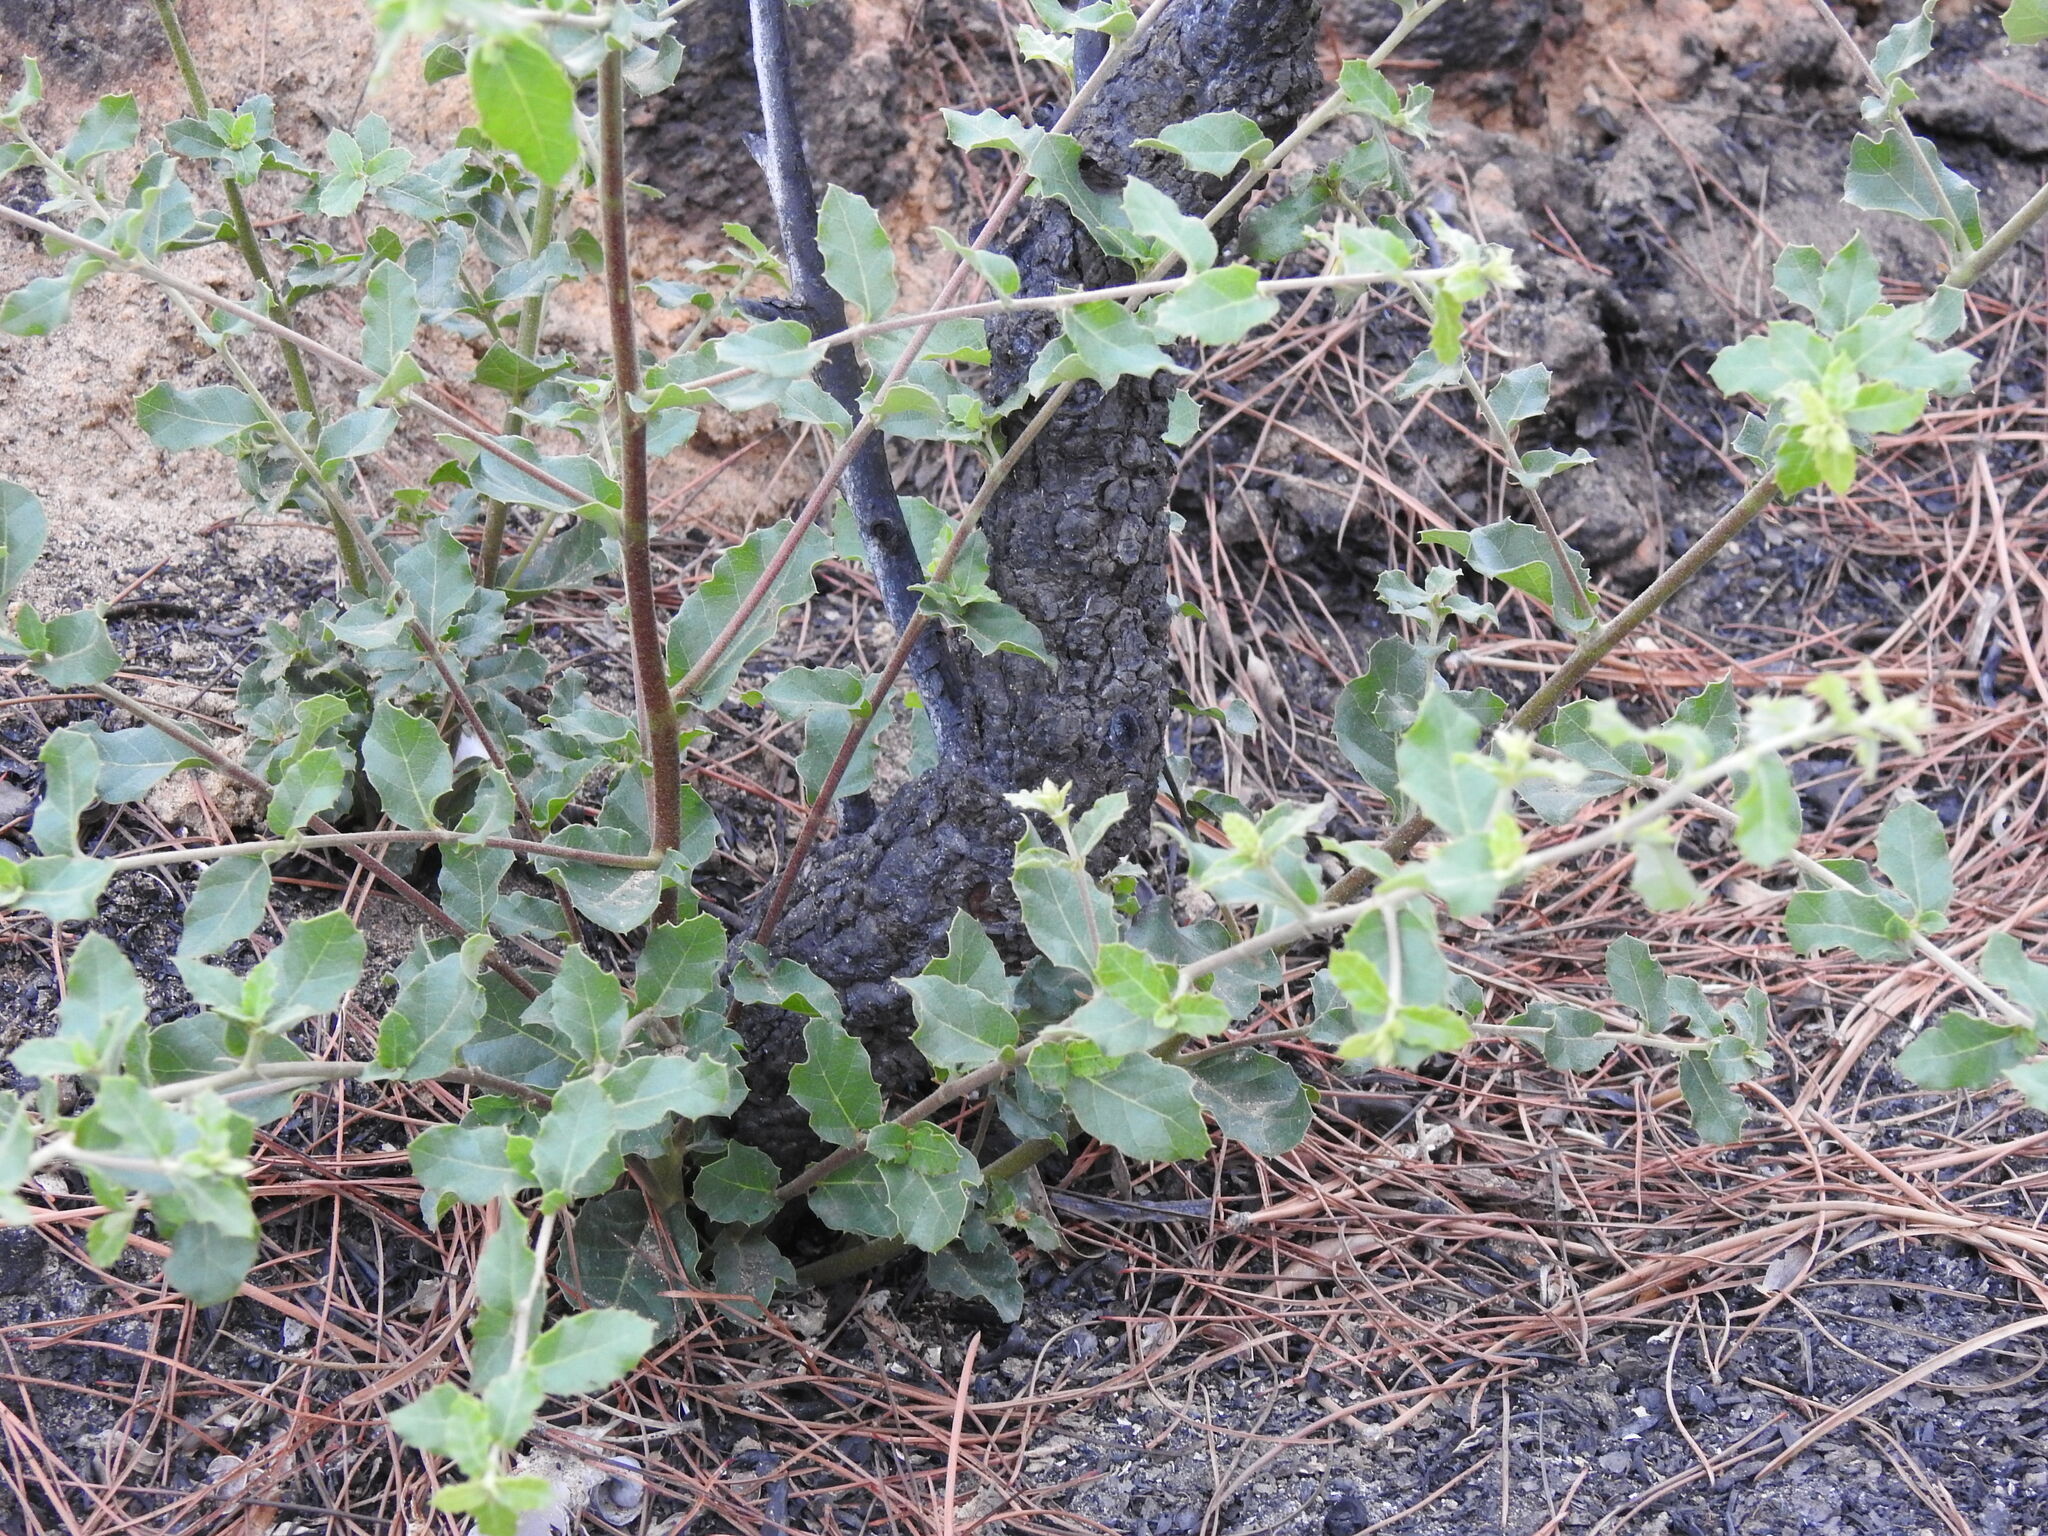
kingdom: Plantae
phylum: Tracheophyta
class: Magnoliopsida
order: Fagales
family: Fagaceae
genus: Quercus
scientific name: Quercus suber
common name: Cork oak
